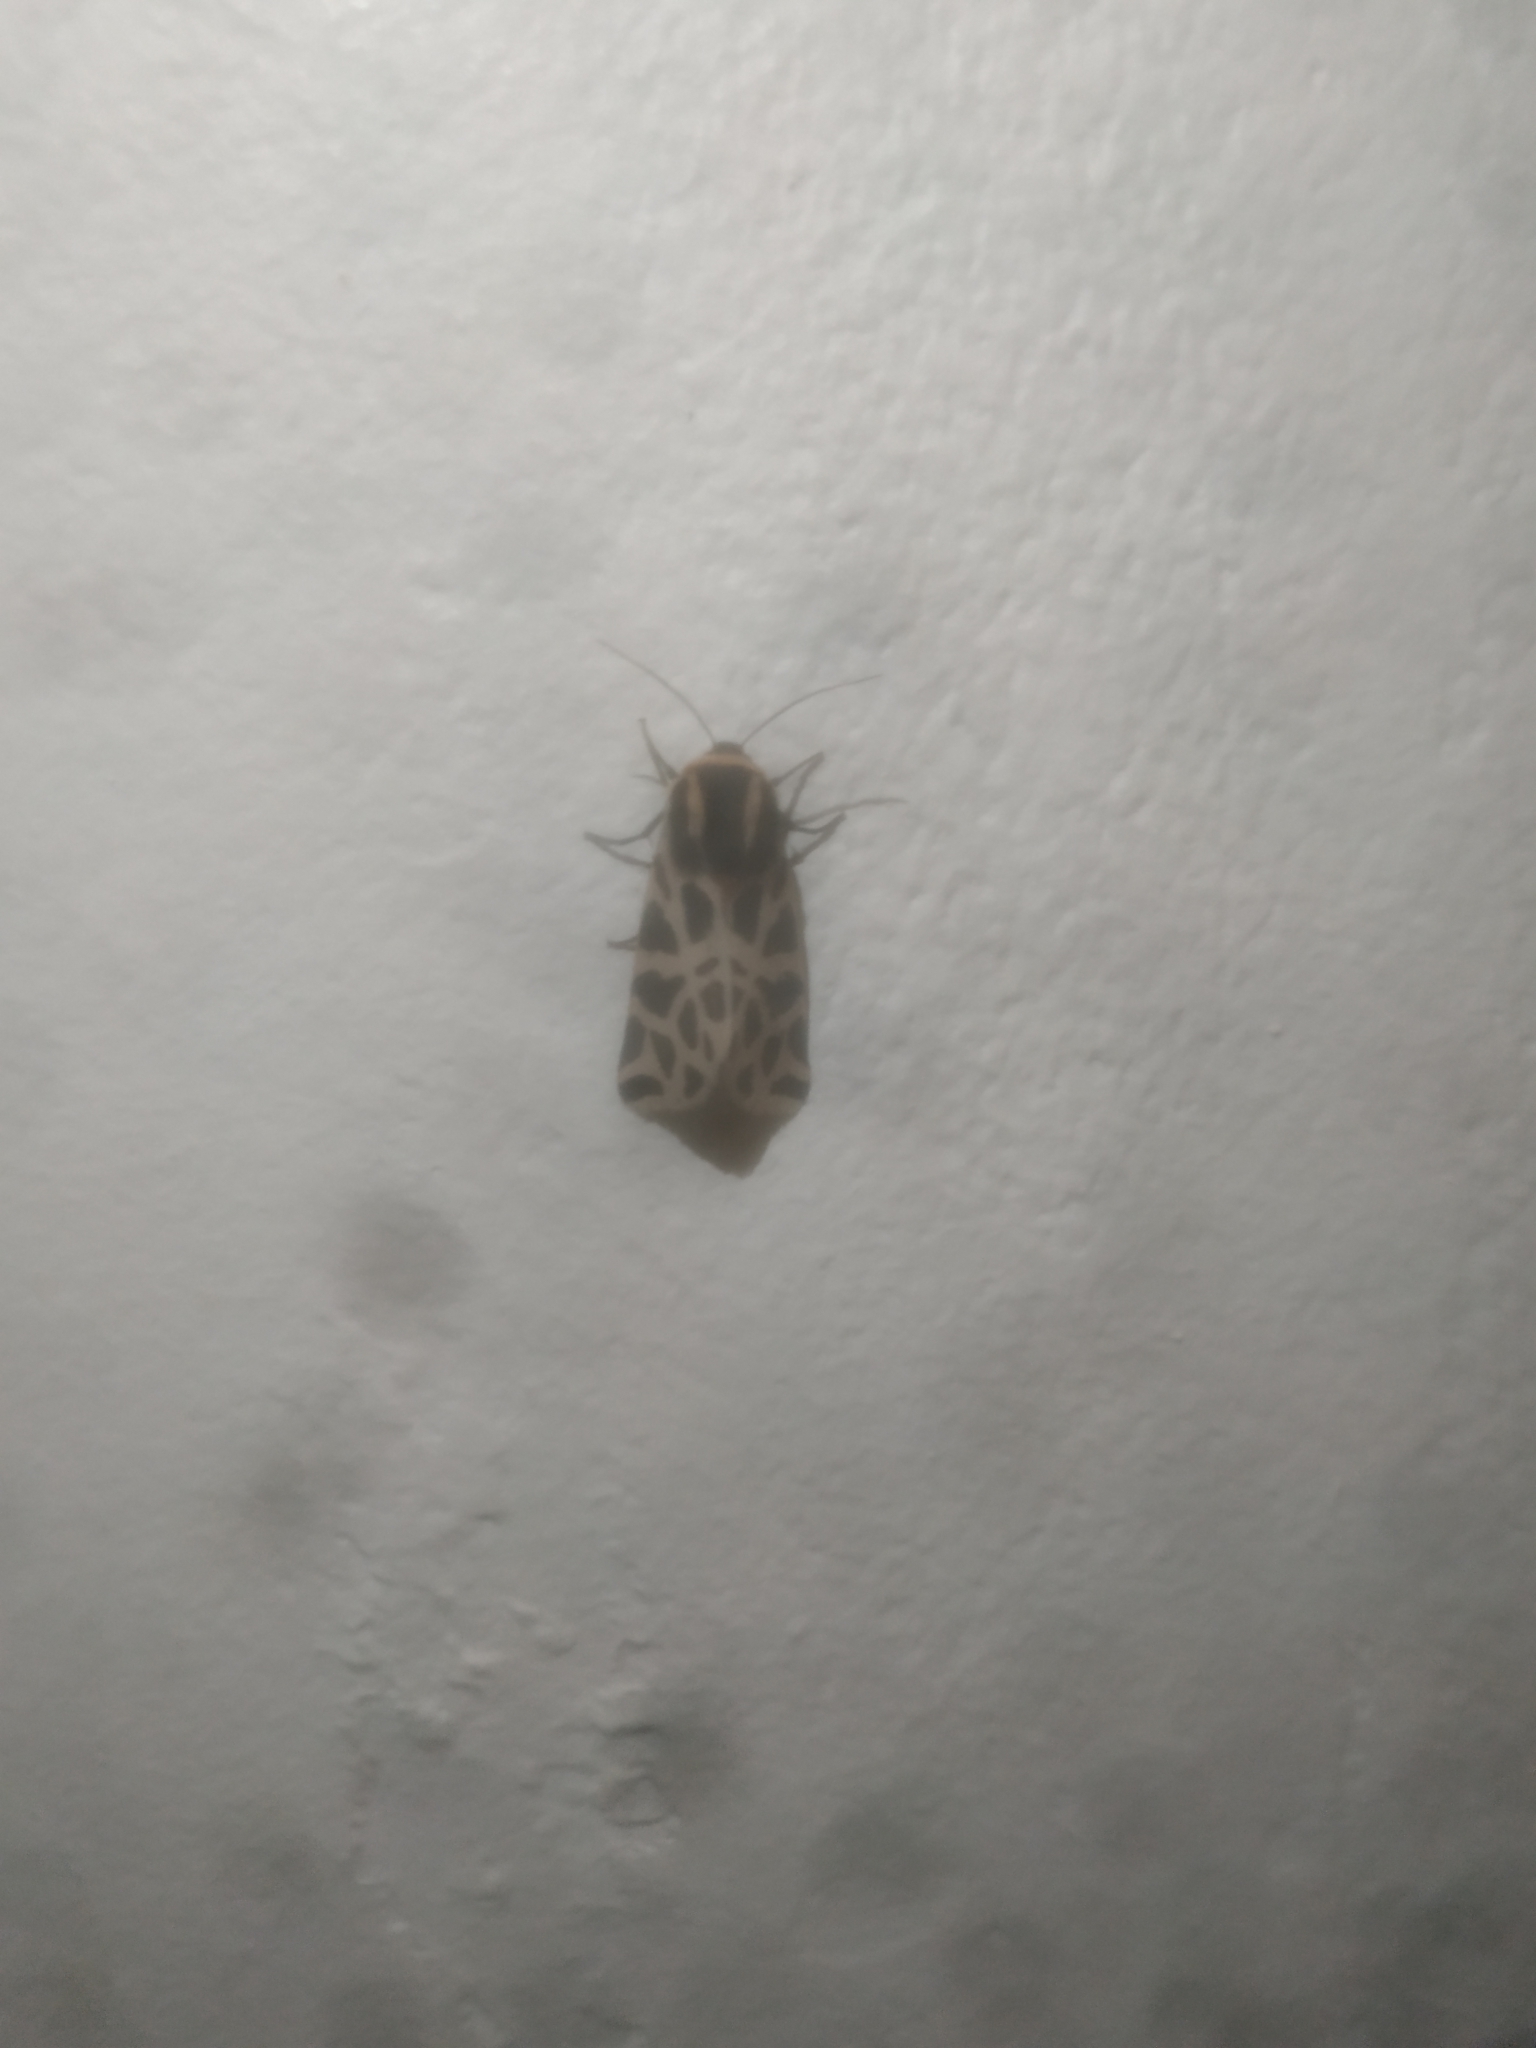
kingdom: Animalia
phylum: Arthropoda
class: Insecta
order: Lepidoptera
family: Erebidae
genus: Cymbalophora
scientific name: Cymbalophora pudica
